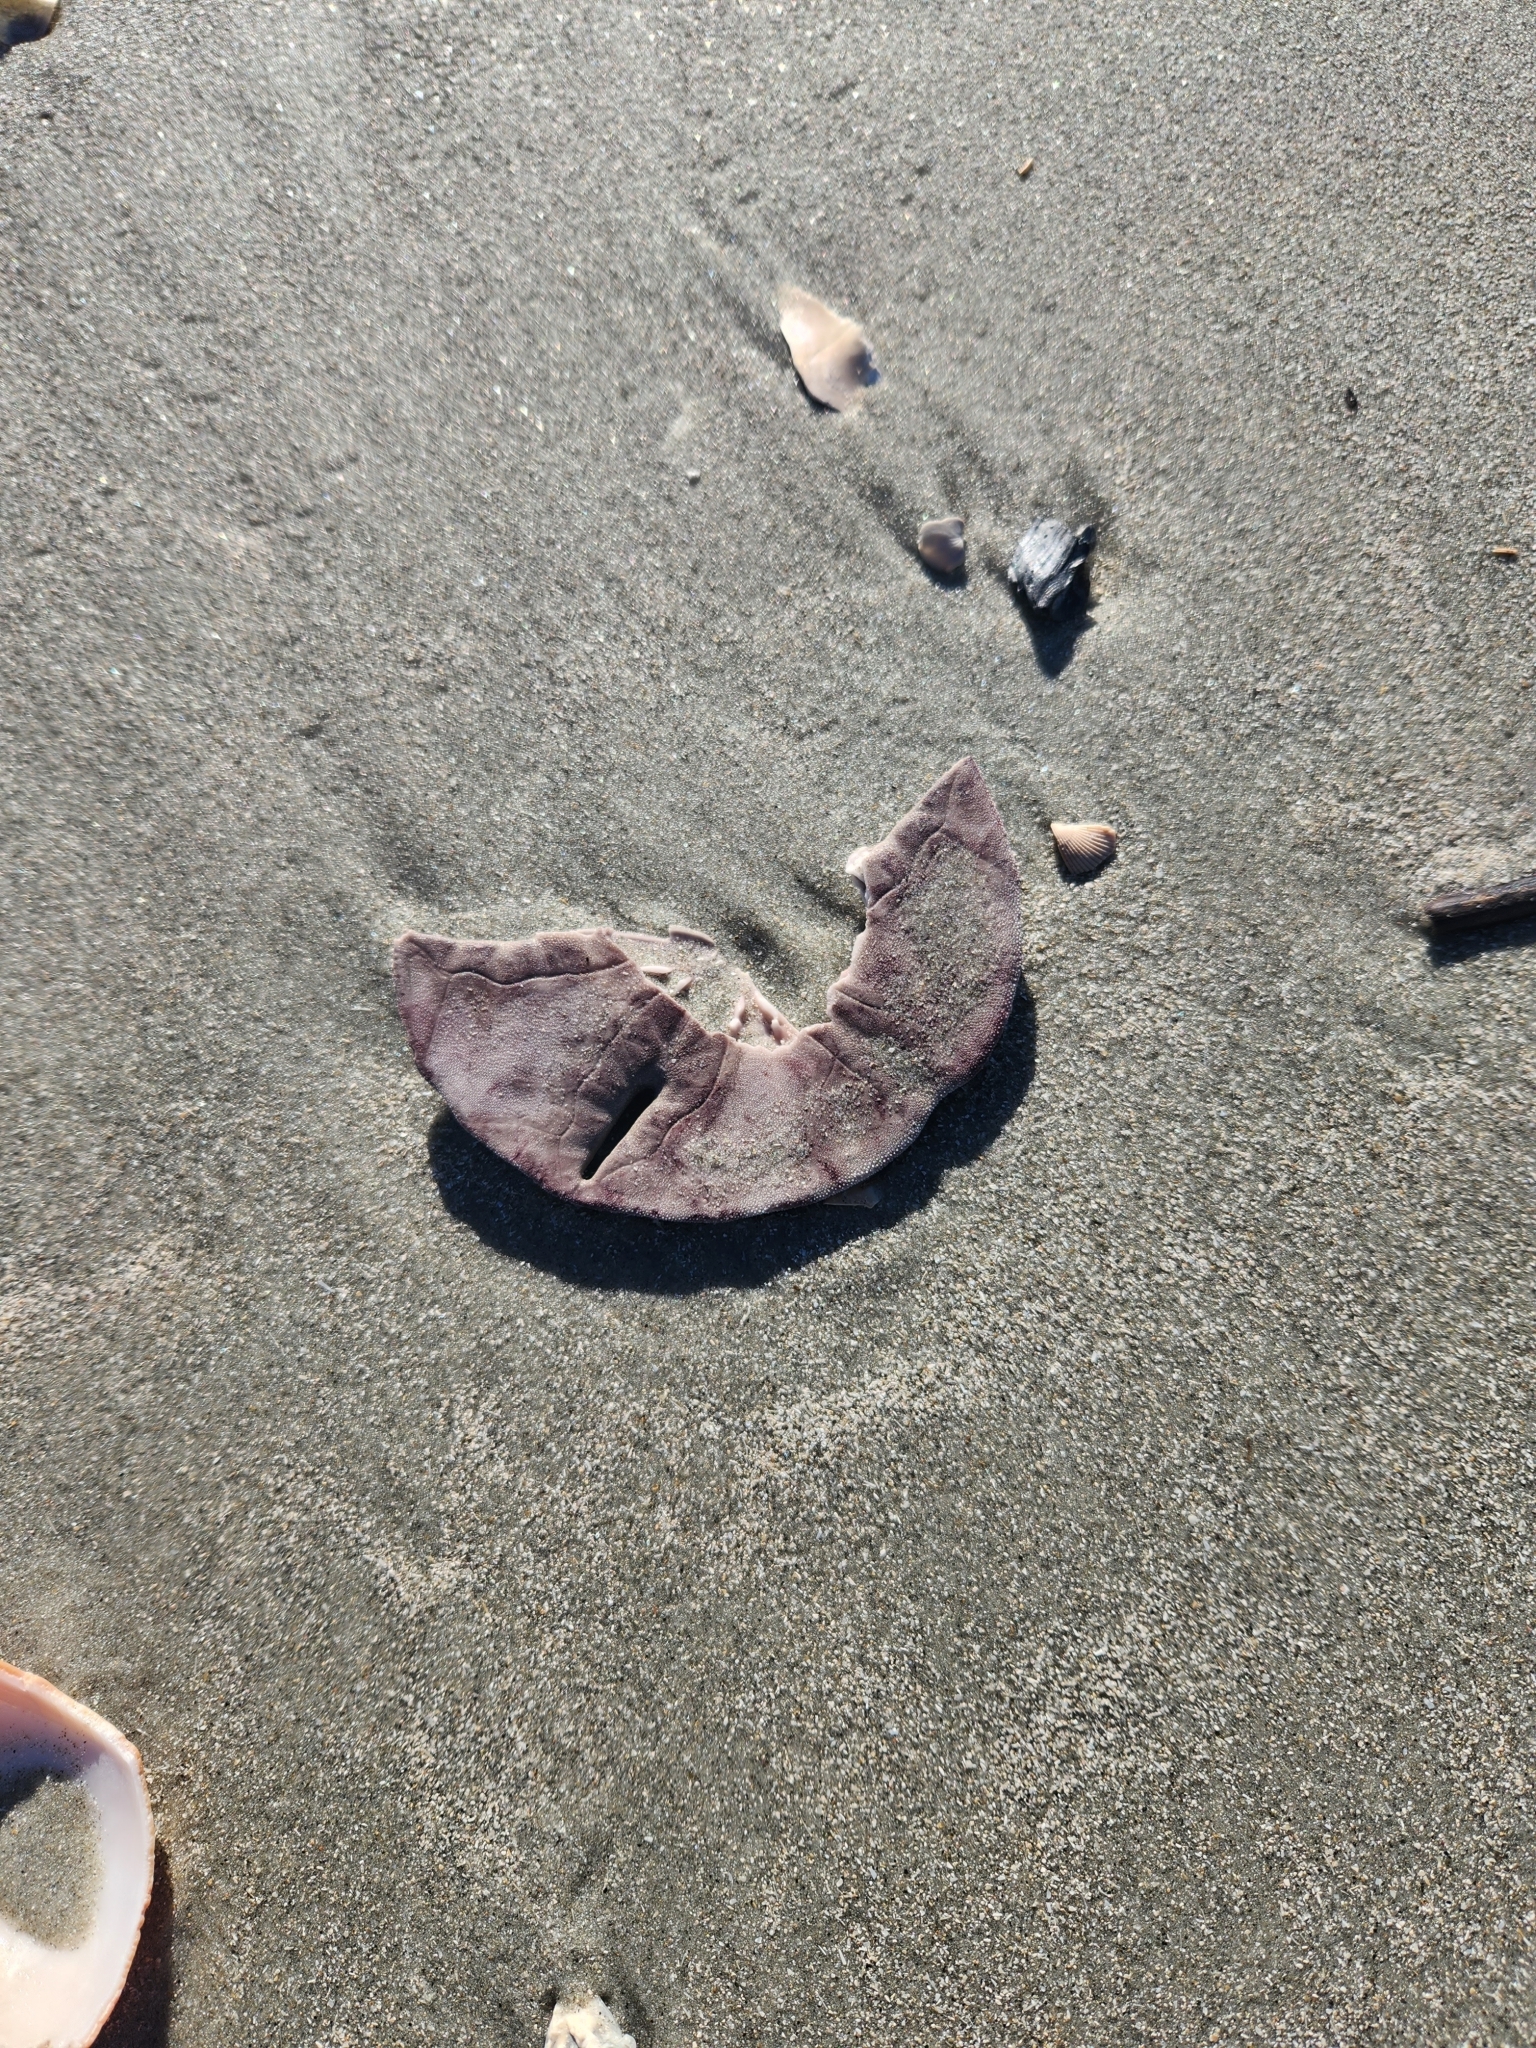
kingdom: Animalia
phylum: Echinodermata
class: Echinoidea
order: Echinolampadacea
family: Mellitidae
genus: Mellita
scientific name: Mellita isometra
